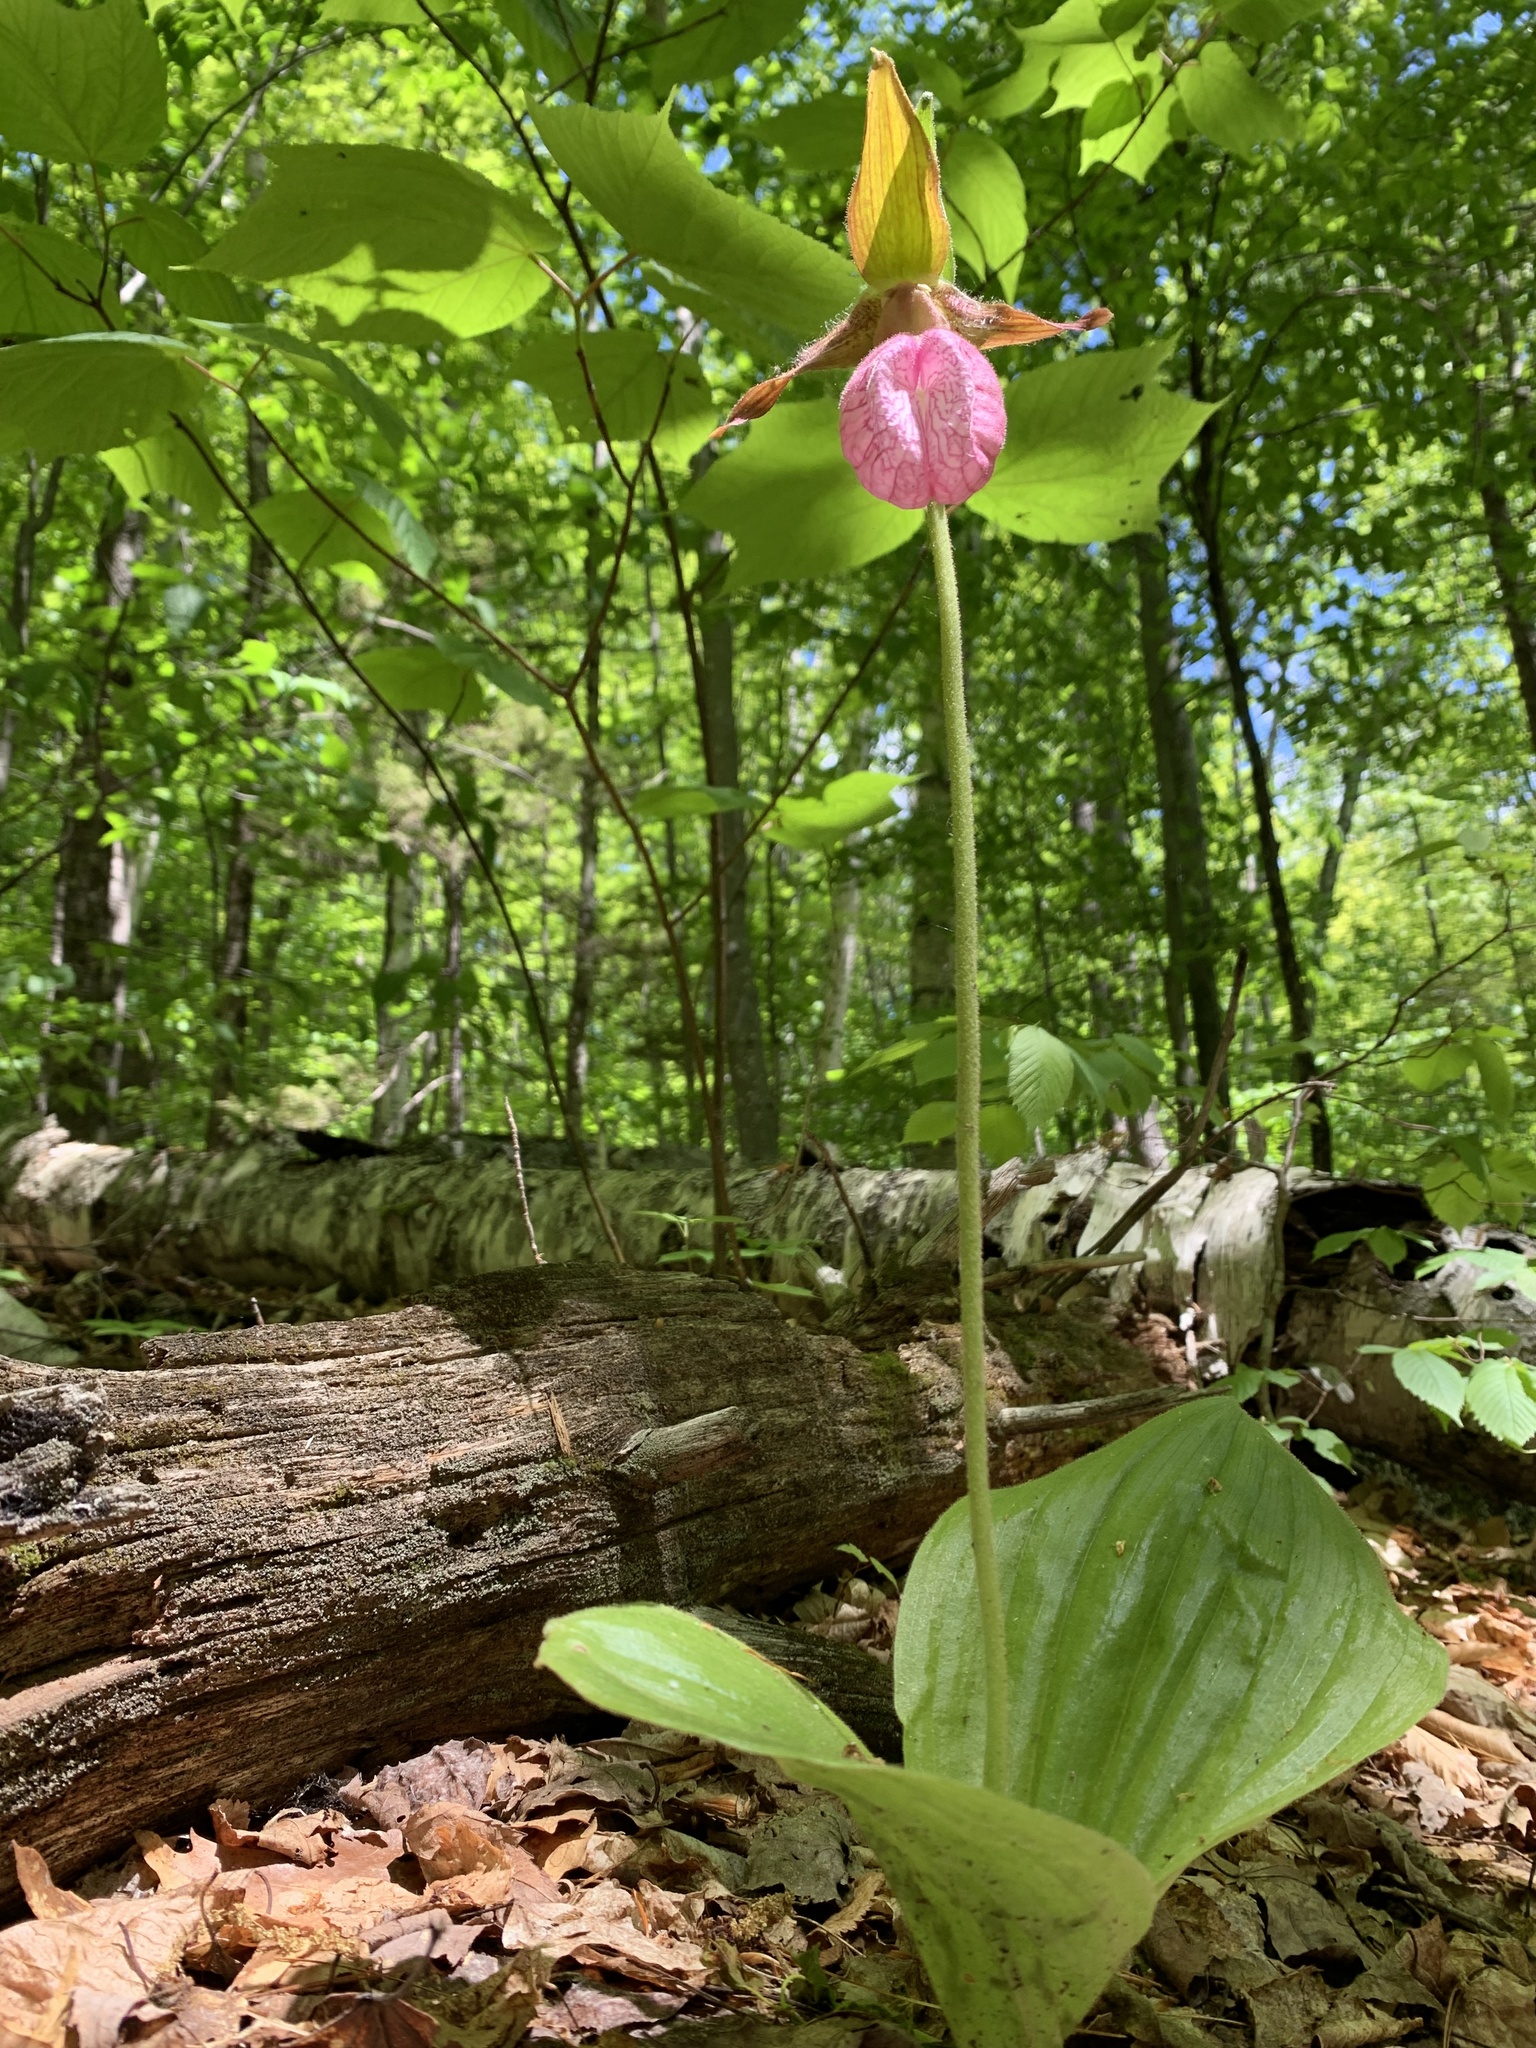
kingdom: Plantae
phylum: Tracheophyta
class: Liliopsida
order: Asparagales
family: Orchidaceae
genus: Cypripedium
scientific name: Cypripedium acaule
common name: Pink lady's-slipper
